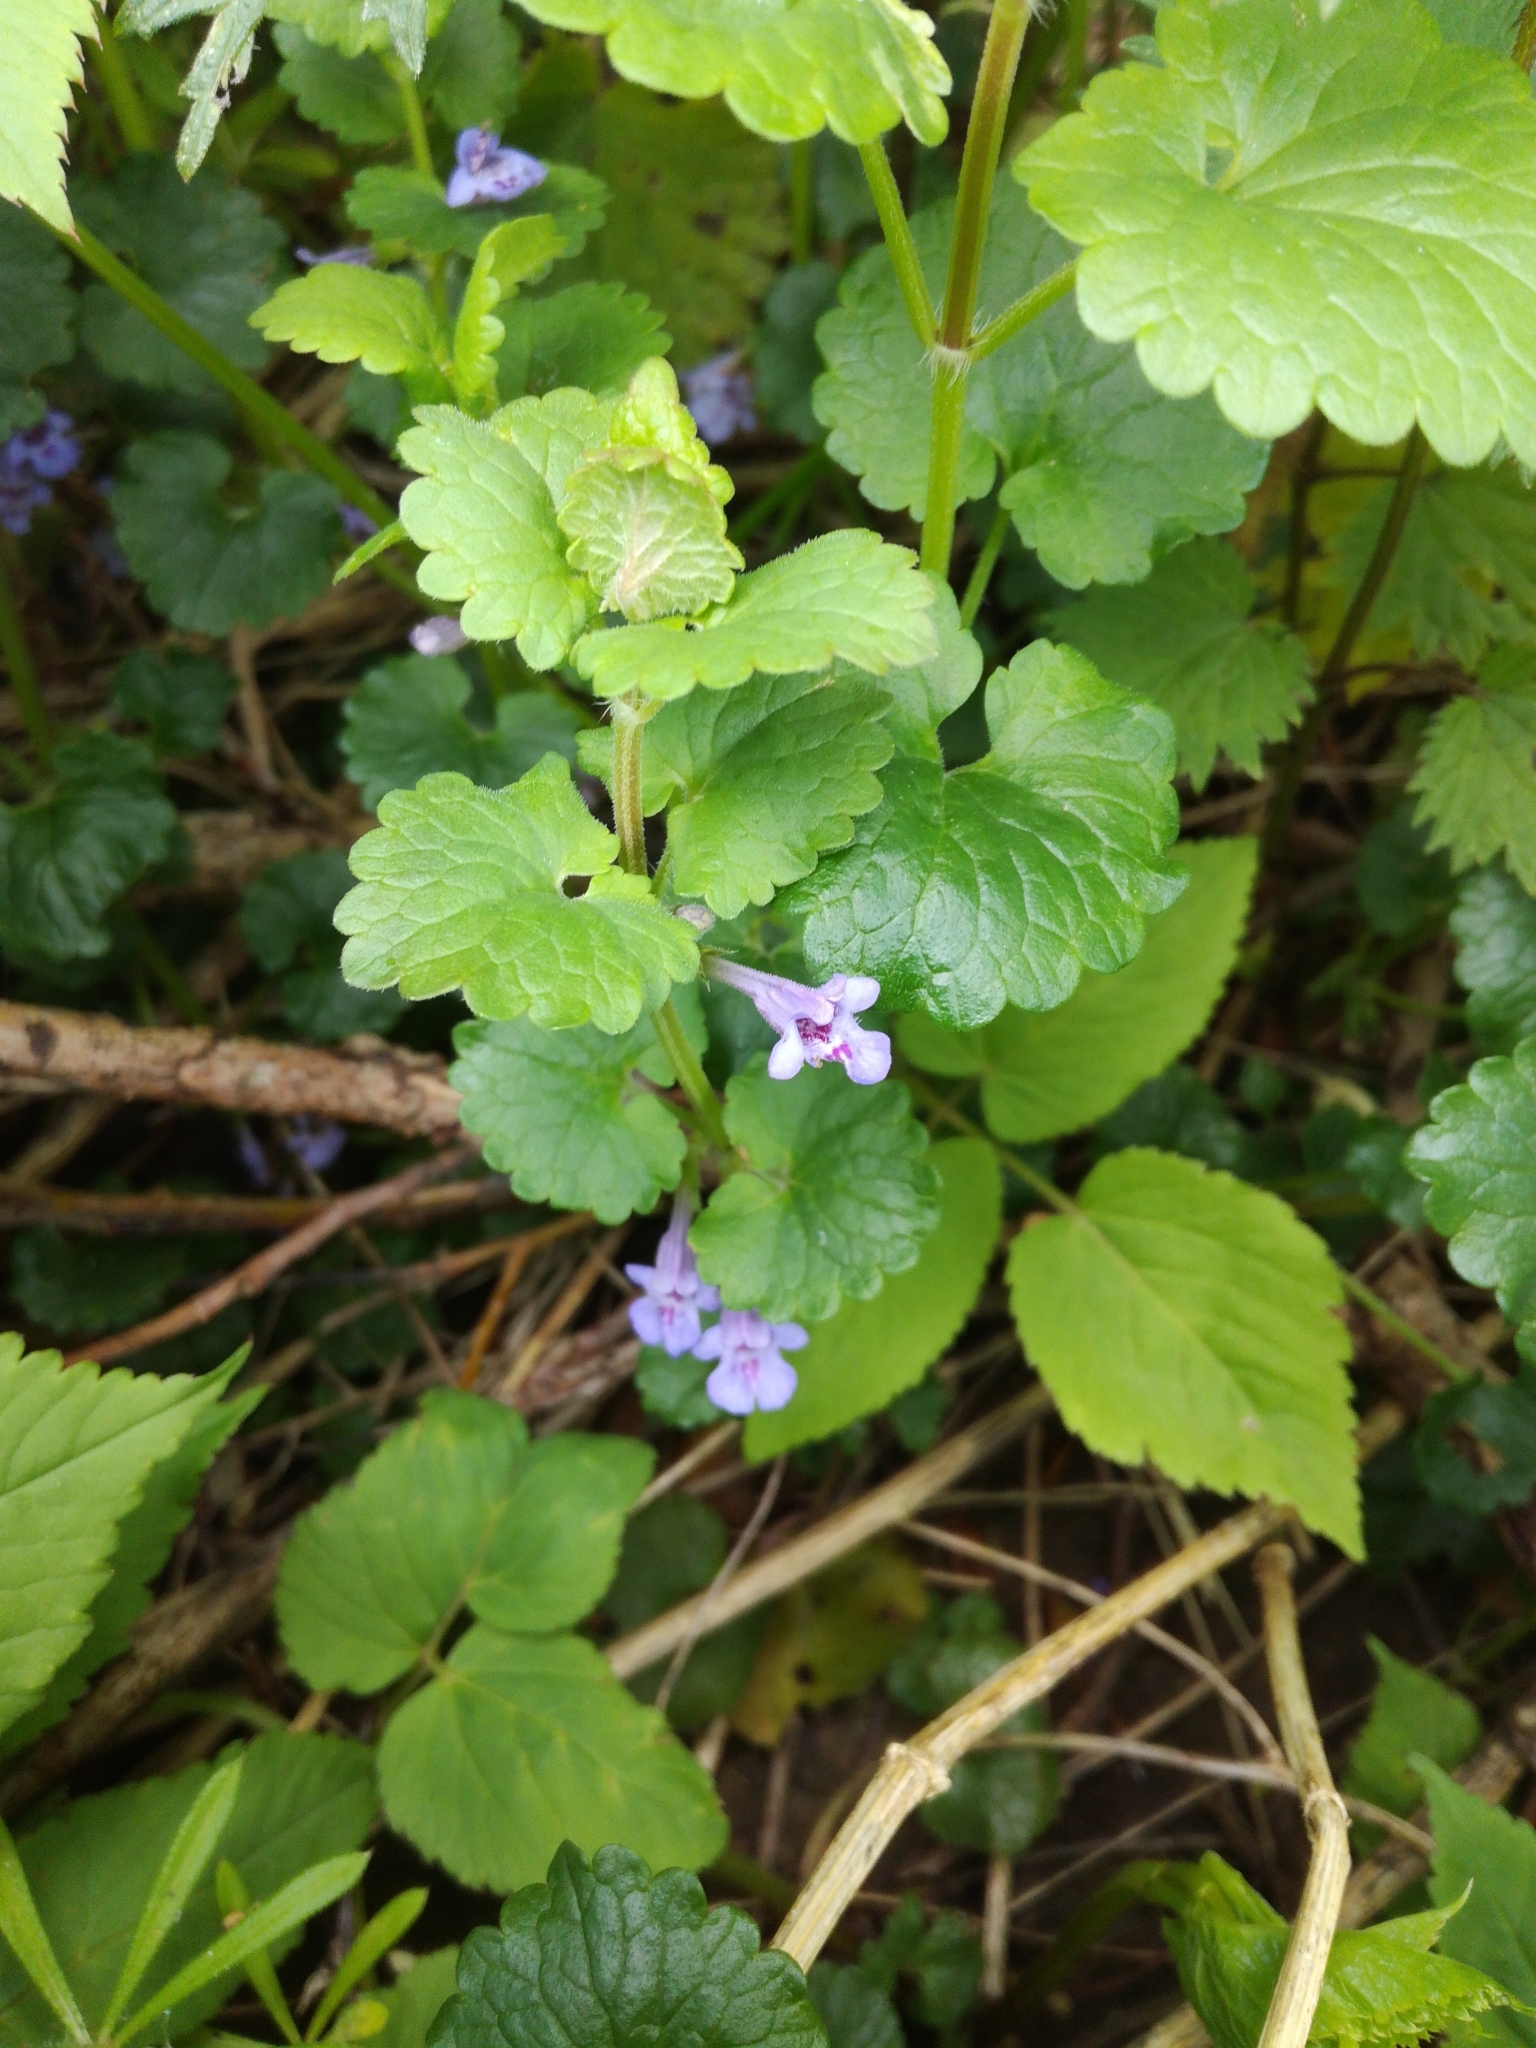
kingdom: Plantae
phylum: Tracheophyta
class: Magnoliopsida
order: Lamiales
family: Lamiaceae
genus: Glechoma
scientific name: Glechoma hederacea
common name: Ground ivy
